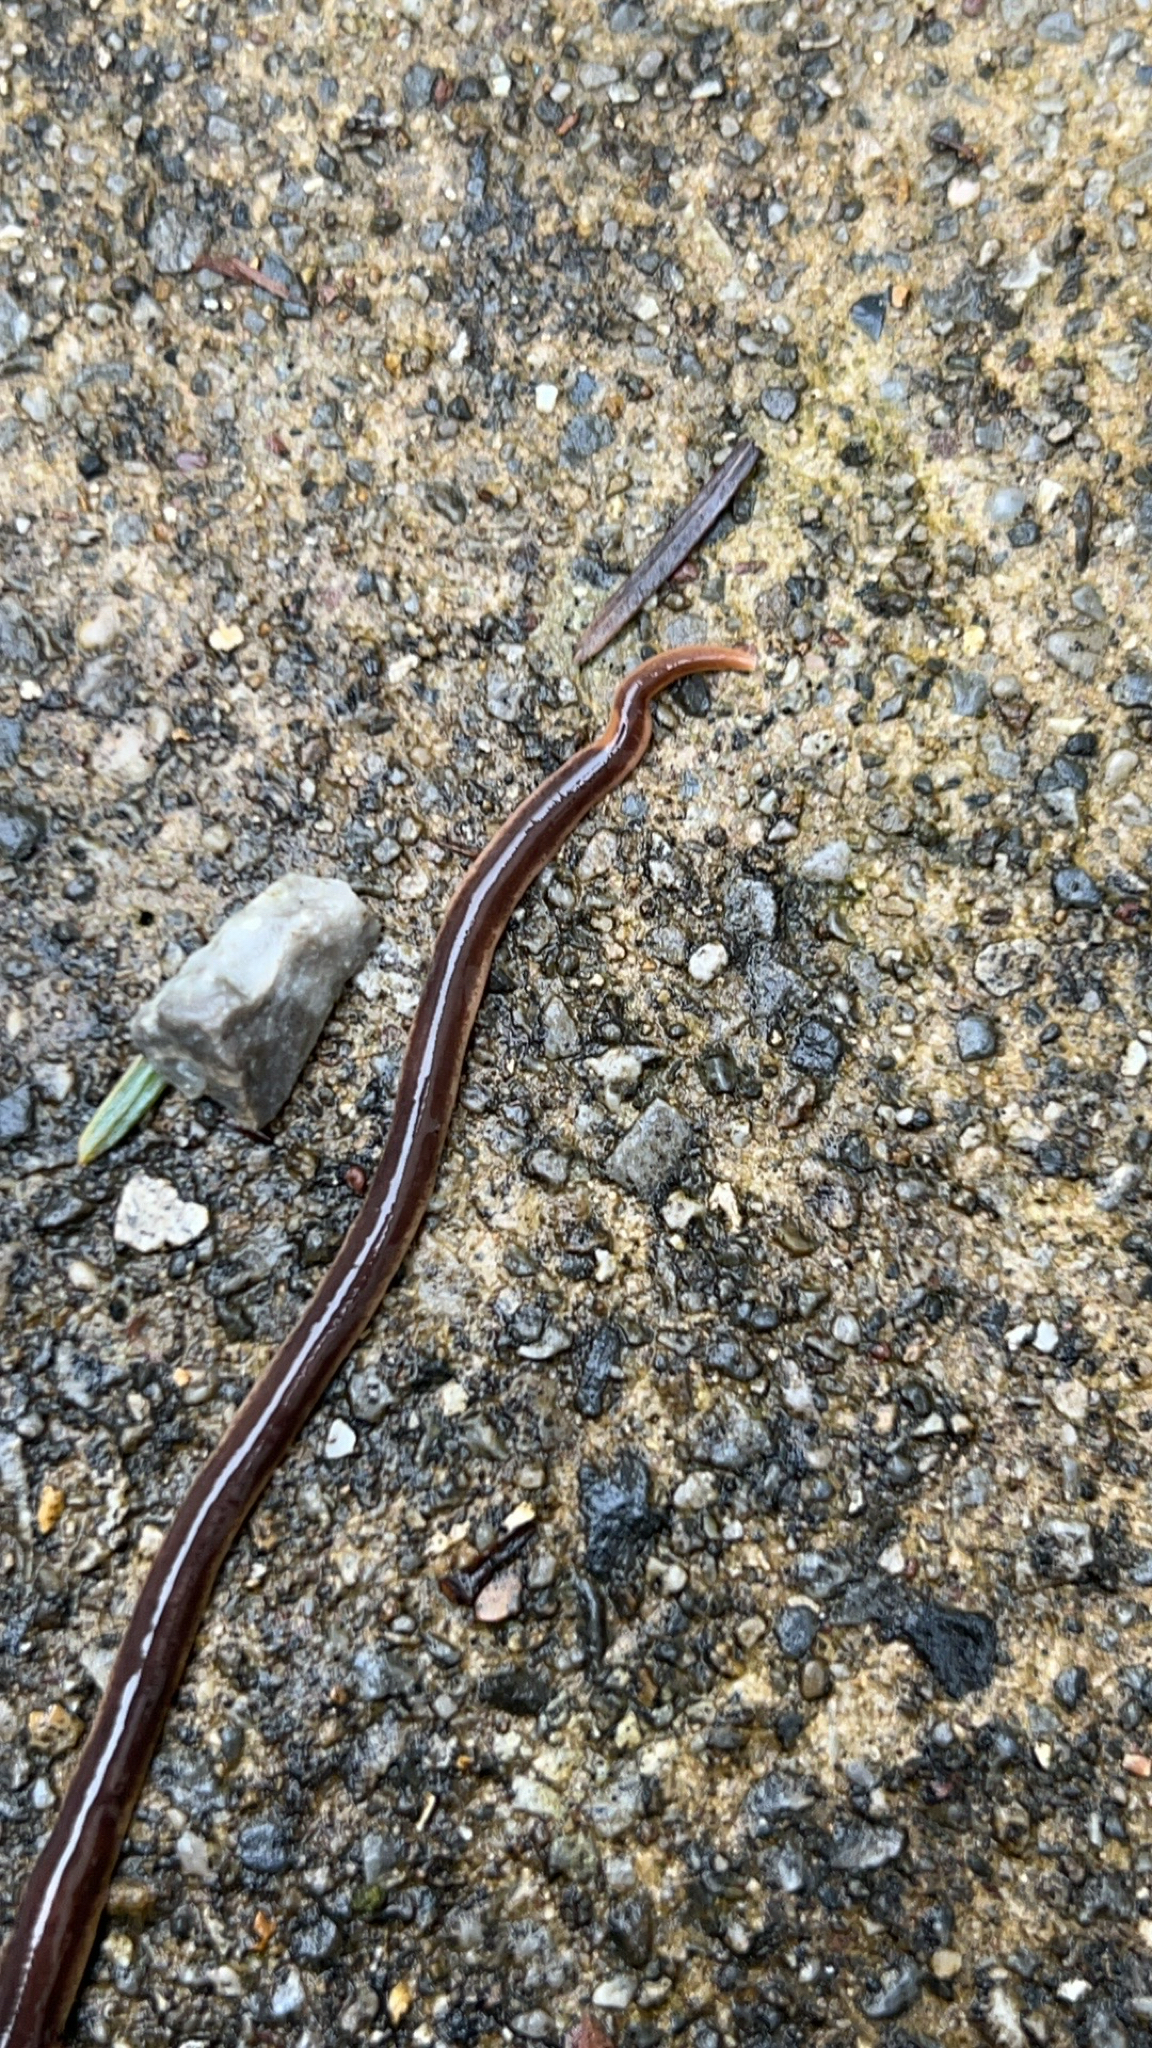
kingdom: Animalia
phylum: Platyhelminthes
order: Tricladida
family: Geoplanidae
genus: Arthurdendyus
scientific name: Arthurdendyus triangulatus
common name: New zealand flatworm
